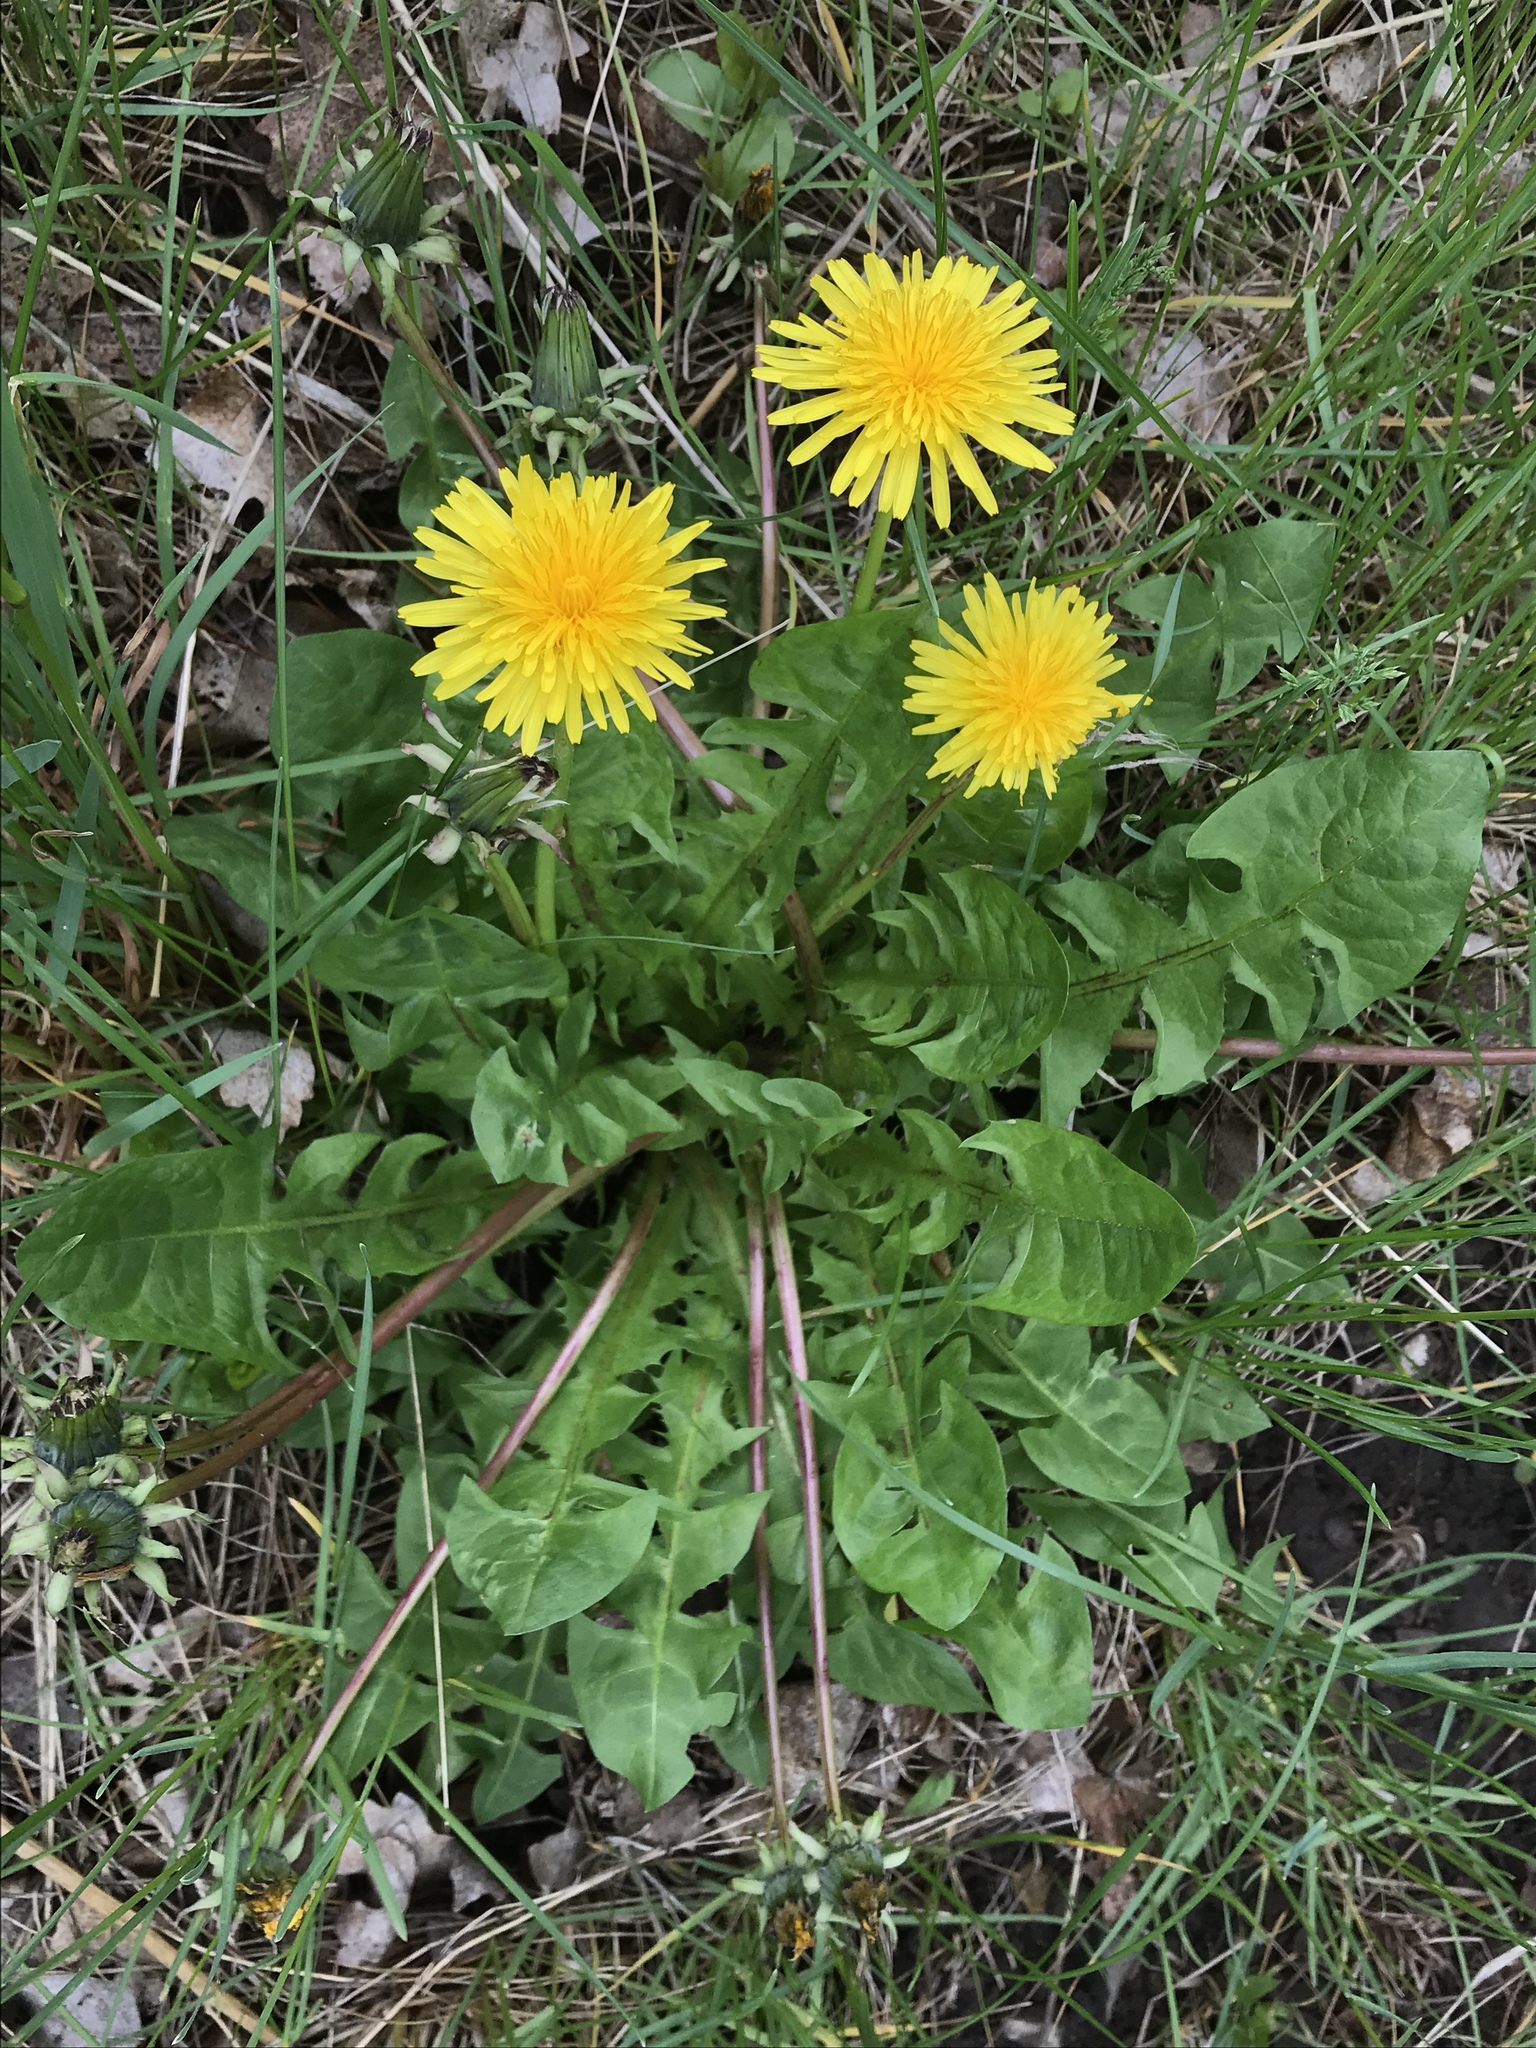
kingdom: Plantae
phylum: Tracheophyta
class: Magnoliopsida
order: Asterales
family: Asteraceae
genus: Taraxacum
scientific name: Taraxacum officinale
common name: Common dandelion
